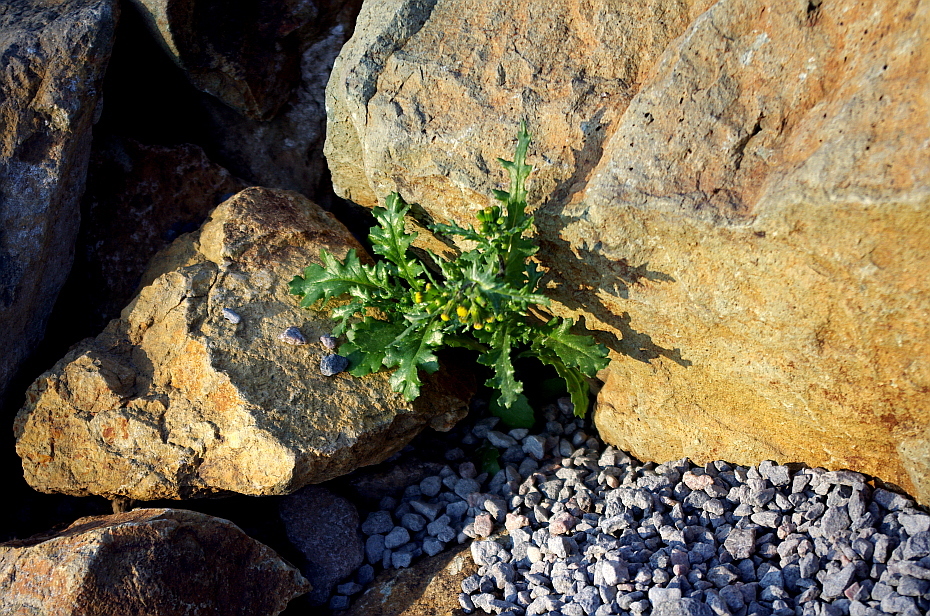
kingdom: Plantae
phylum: Tracheophyta
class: Magnoliopsida
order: Asterales
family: Asteraceae
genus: Senecio
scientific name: Senecio vulgaris
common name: Old-man-in-the-spring
